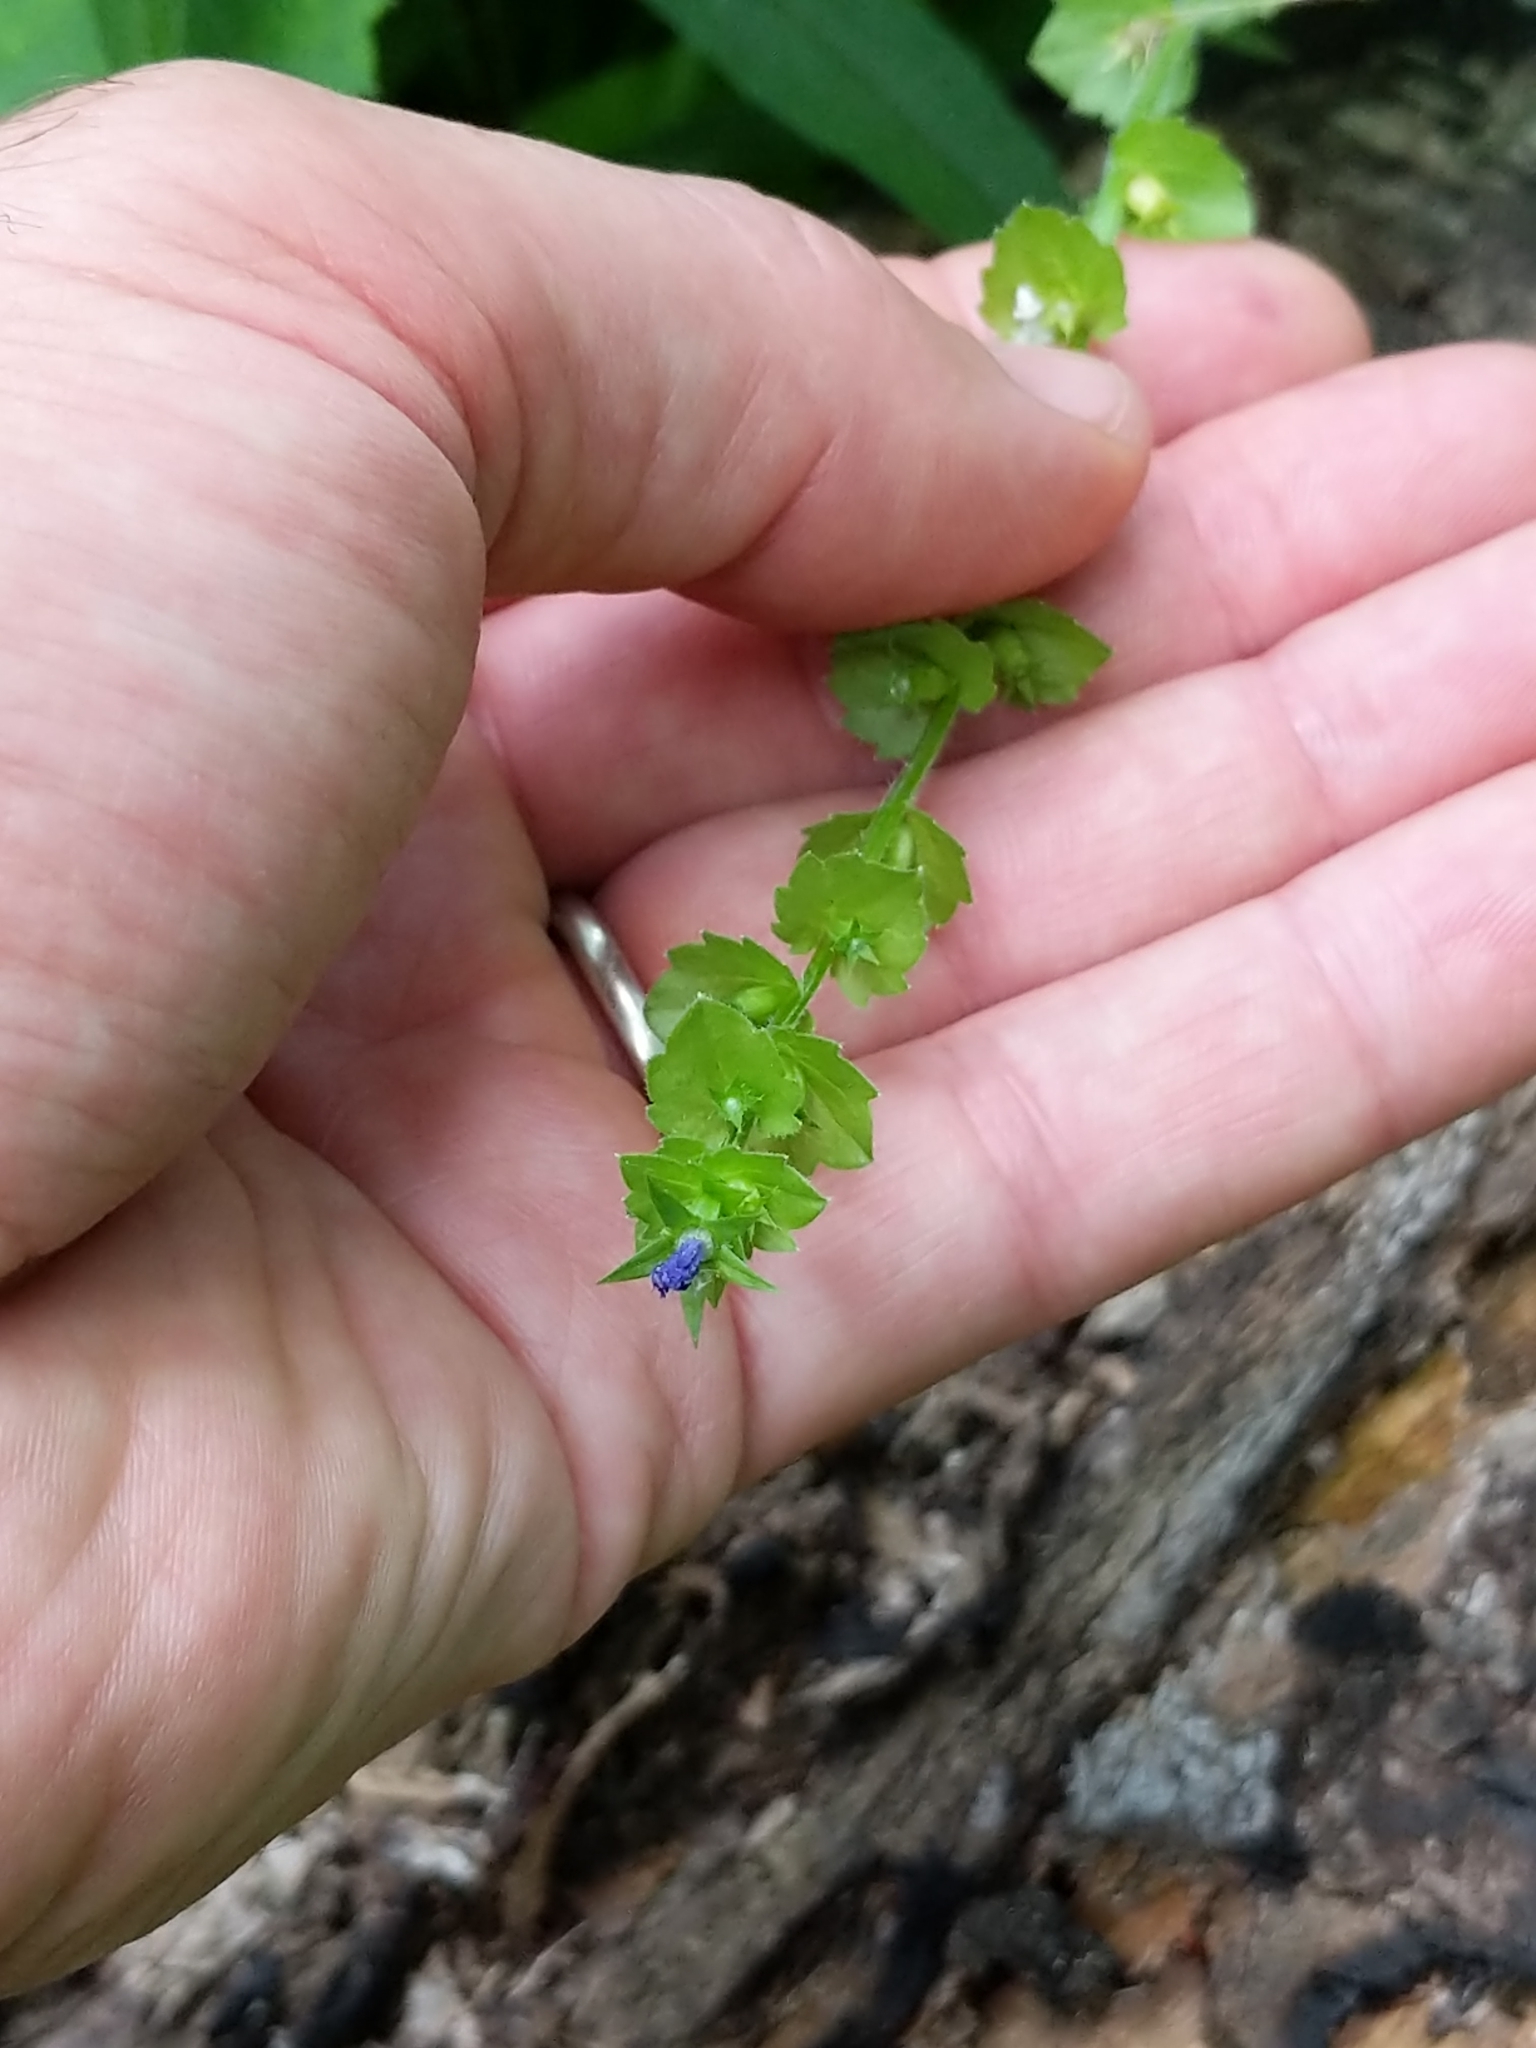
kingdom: Plantae
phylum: Tracheophyta
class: Magnoliopsida
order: Asterales
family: Campanulaceae
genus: Triodanis
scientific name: Triodanis perfoliata
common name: Clasping venus' looking-glass
